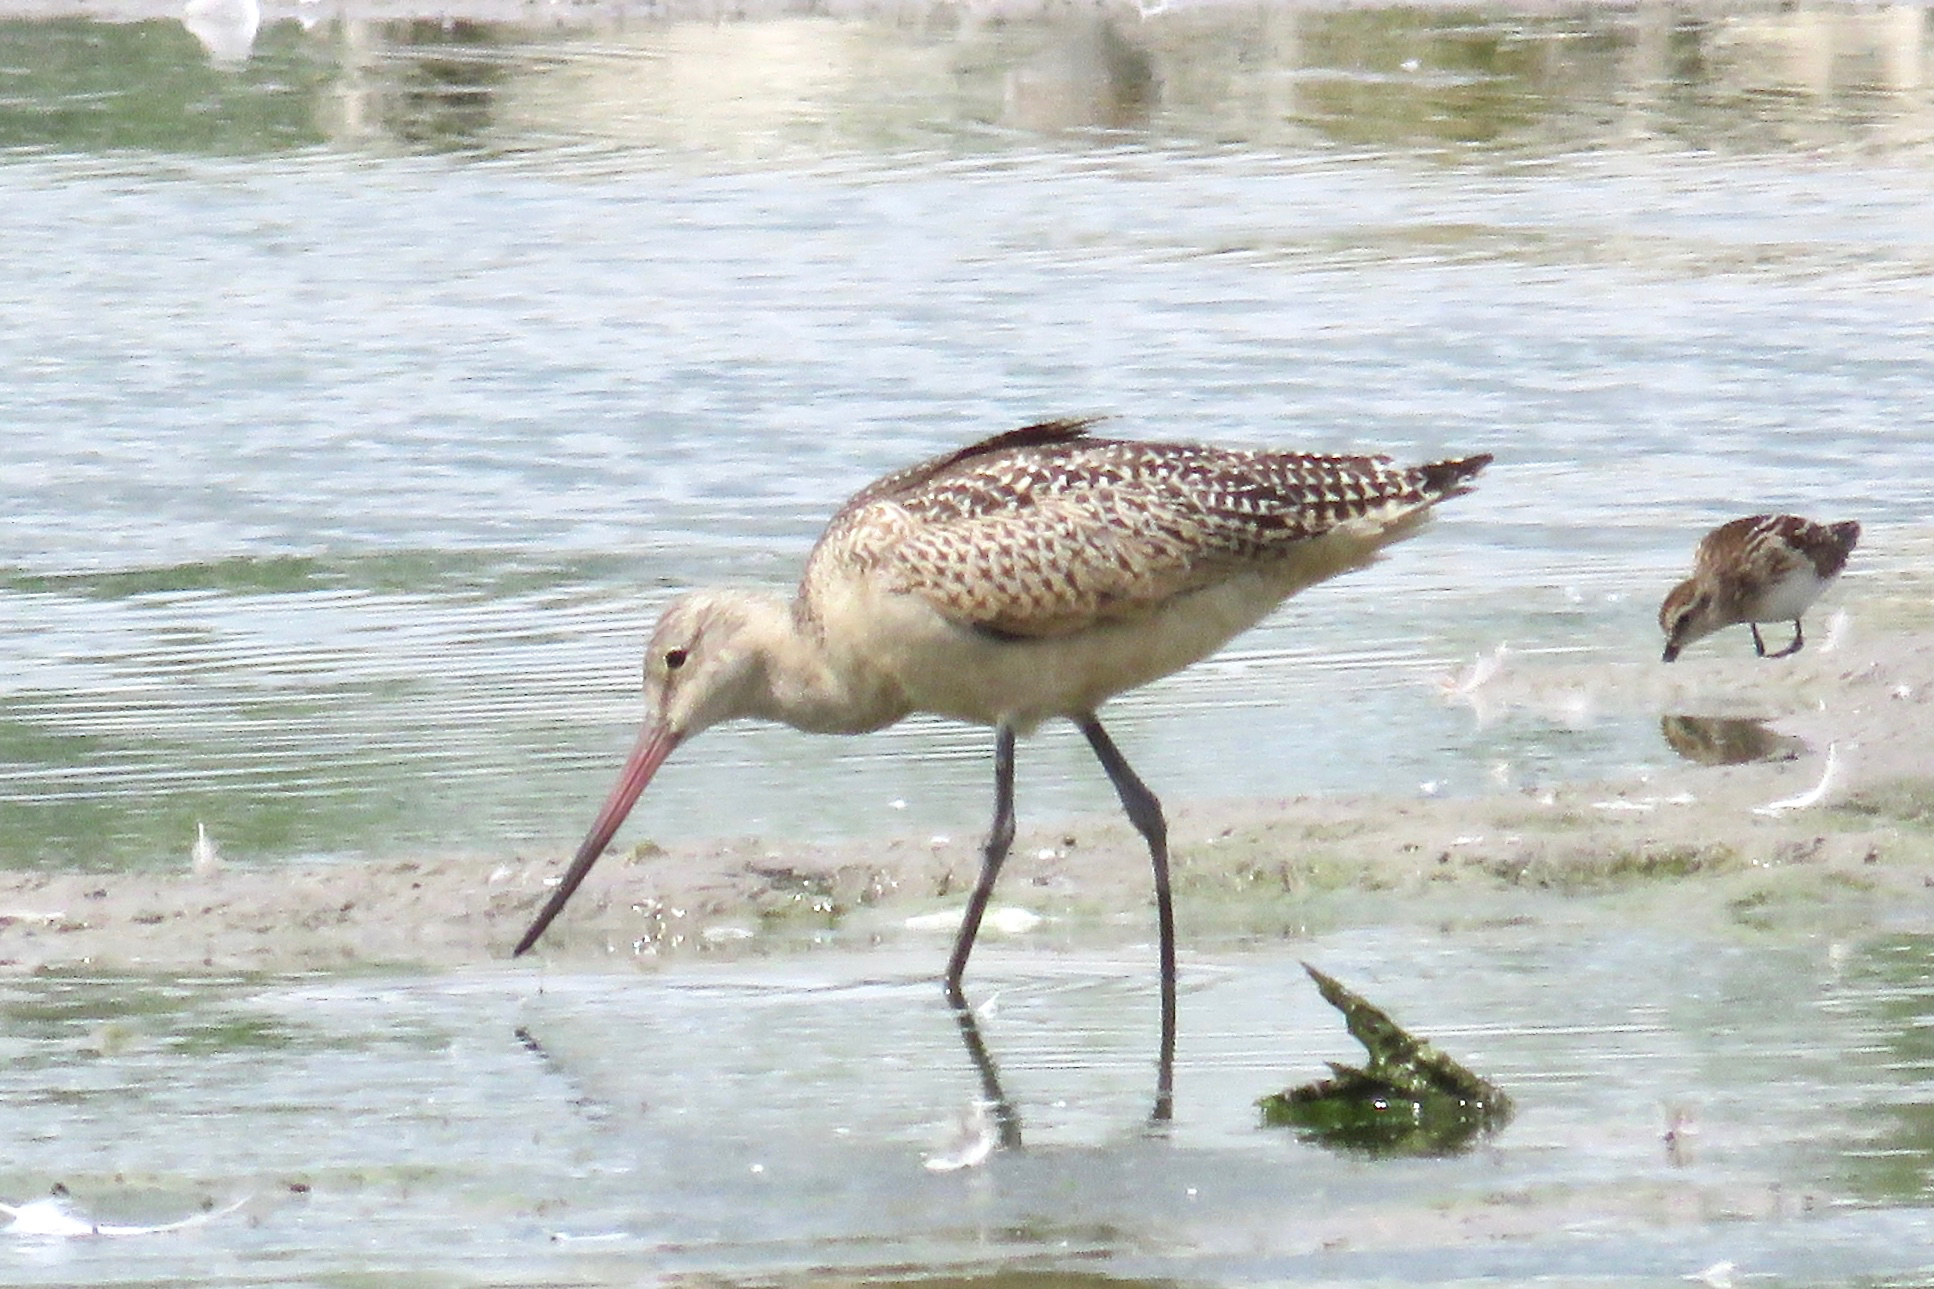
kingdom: Animalia
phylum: Chordata
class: Aves
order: Charadriiformes
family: Scolopacidae
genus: Limosa
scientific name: Limosa fedoa
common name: Marbled godwit
